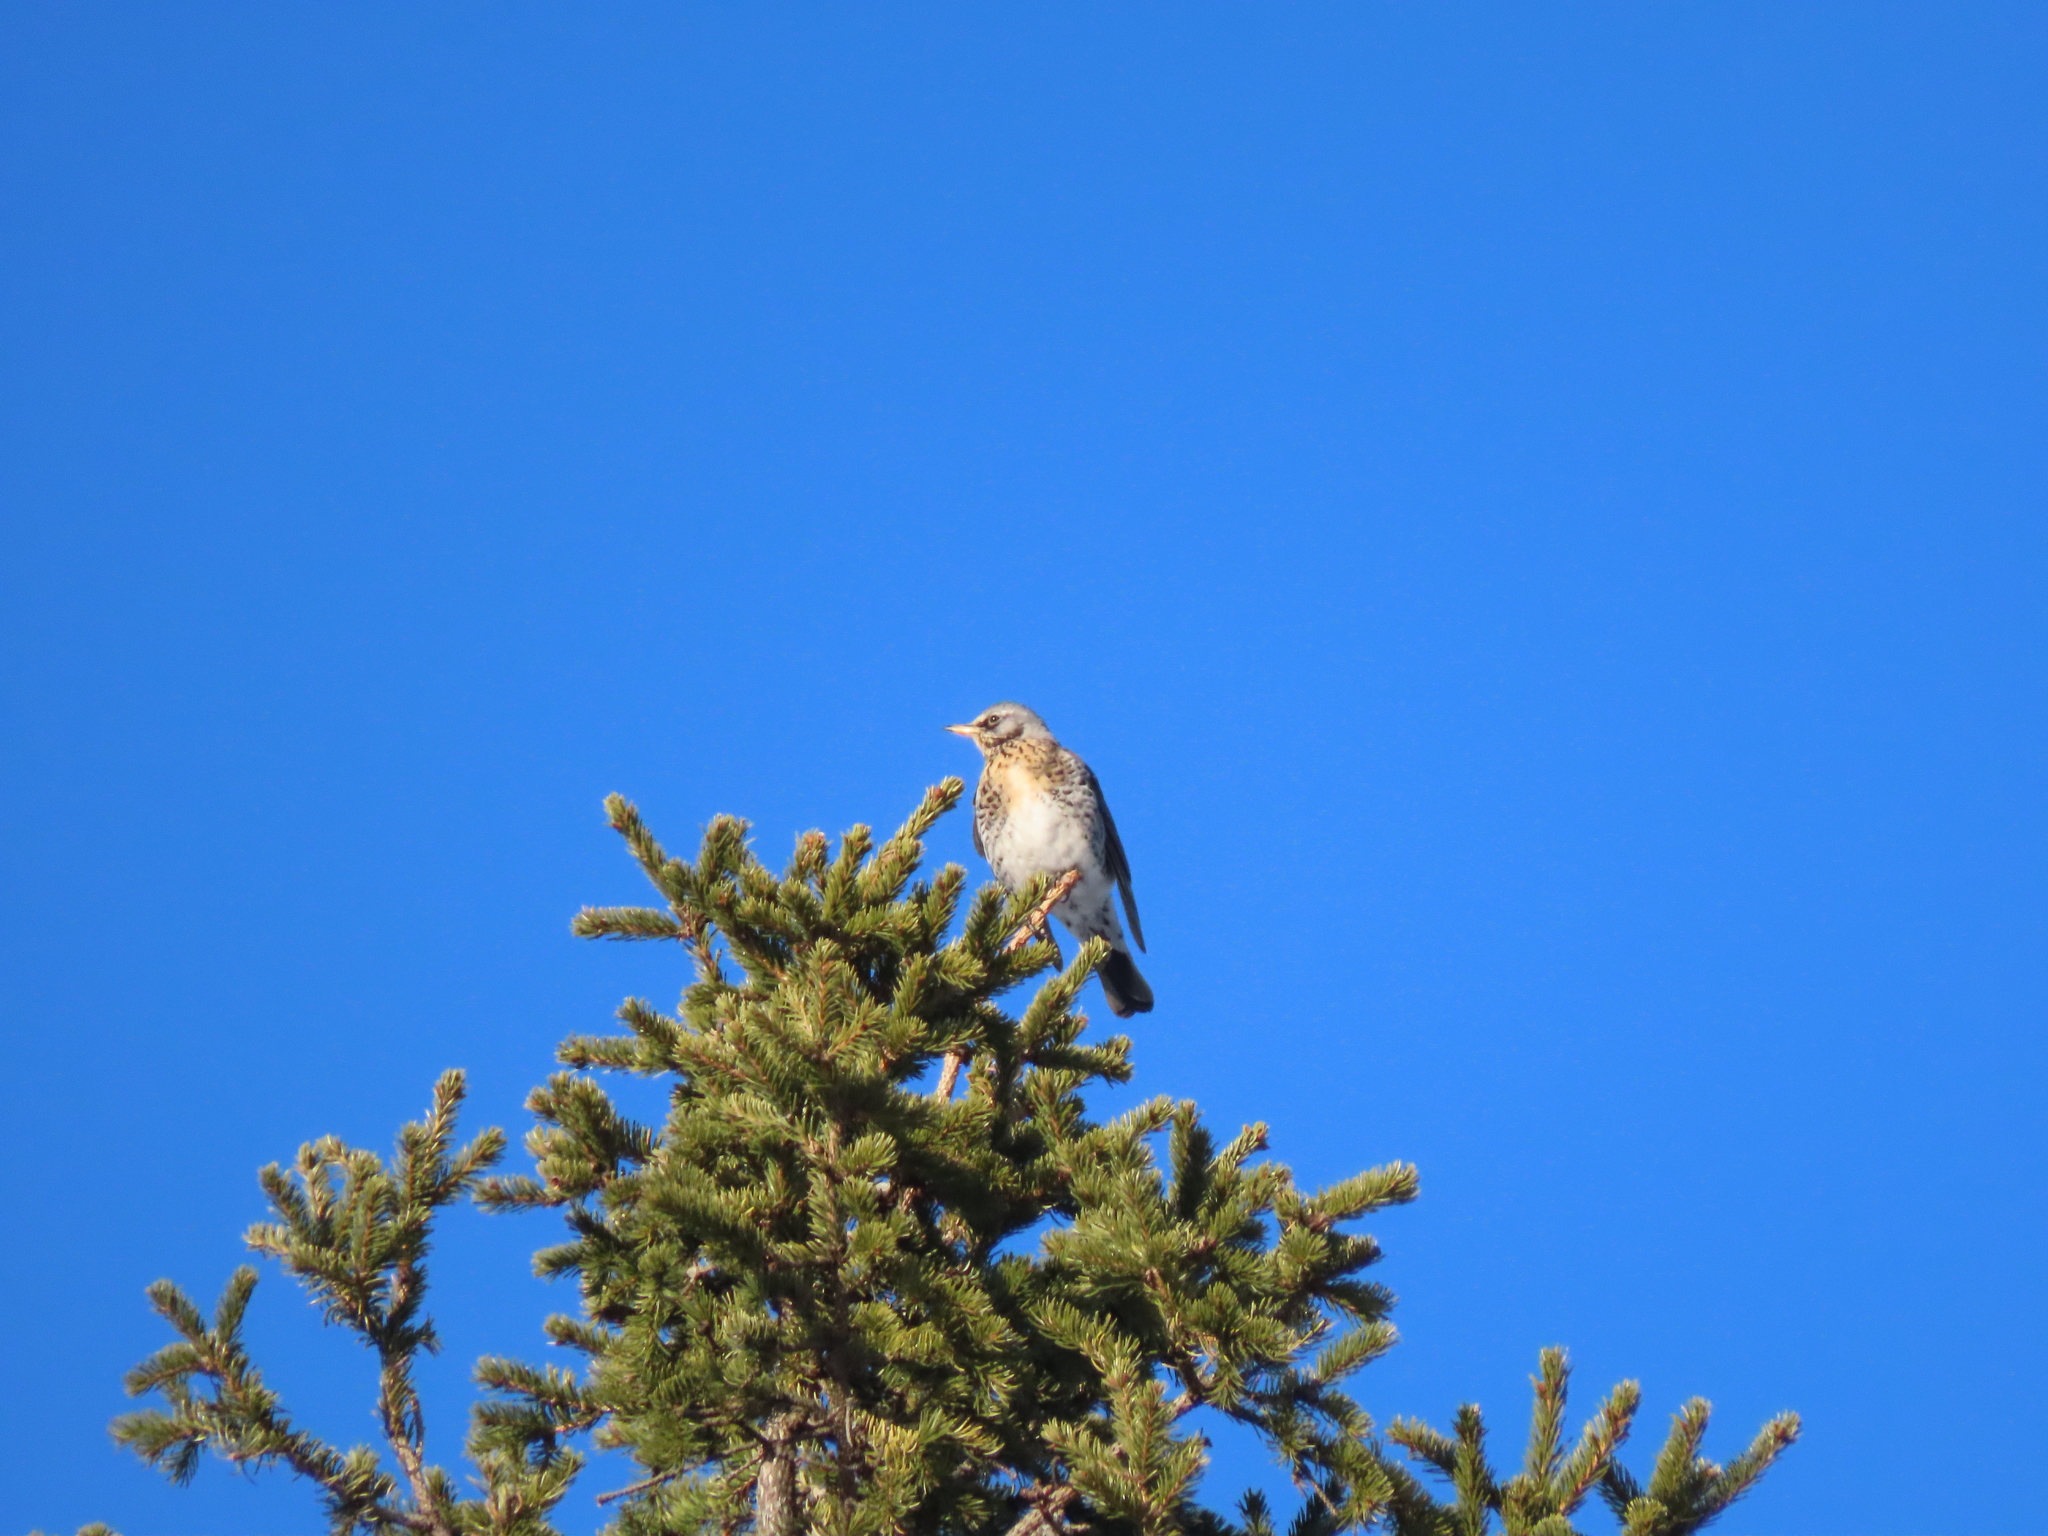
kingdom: Animalia
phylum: Chordata
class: Aves
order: Passeriformes
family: Turdidae
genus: Turdus
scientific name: Turdus pilaris
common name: Fieldfare
